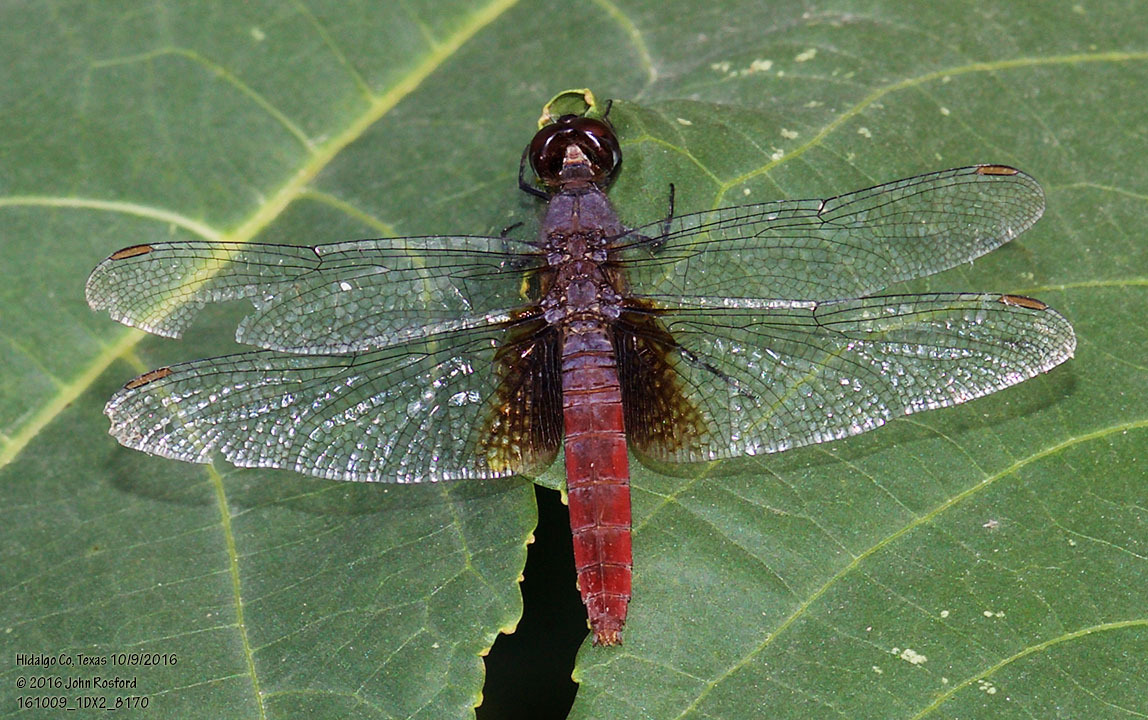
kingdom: Animalia
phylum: Arthropoda
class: Insecta
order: Odonata
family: Libellulidae
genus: Planiplax
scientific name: Planiplax sanguiniventris
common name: Mexican scarlet-tail
